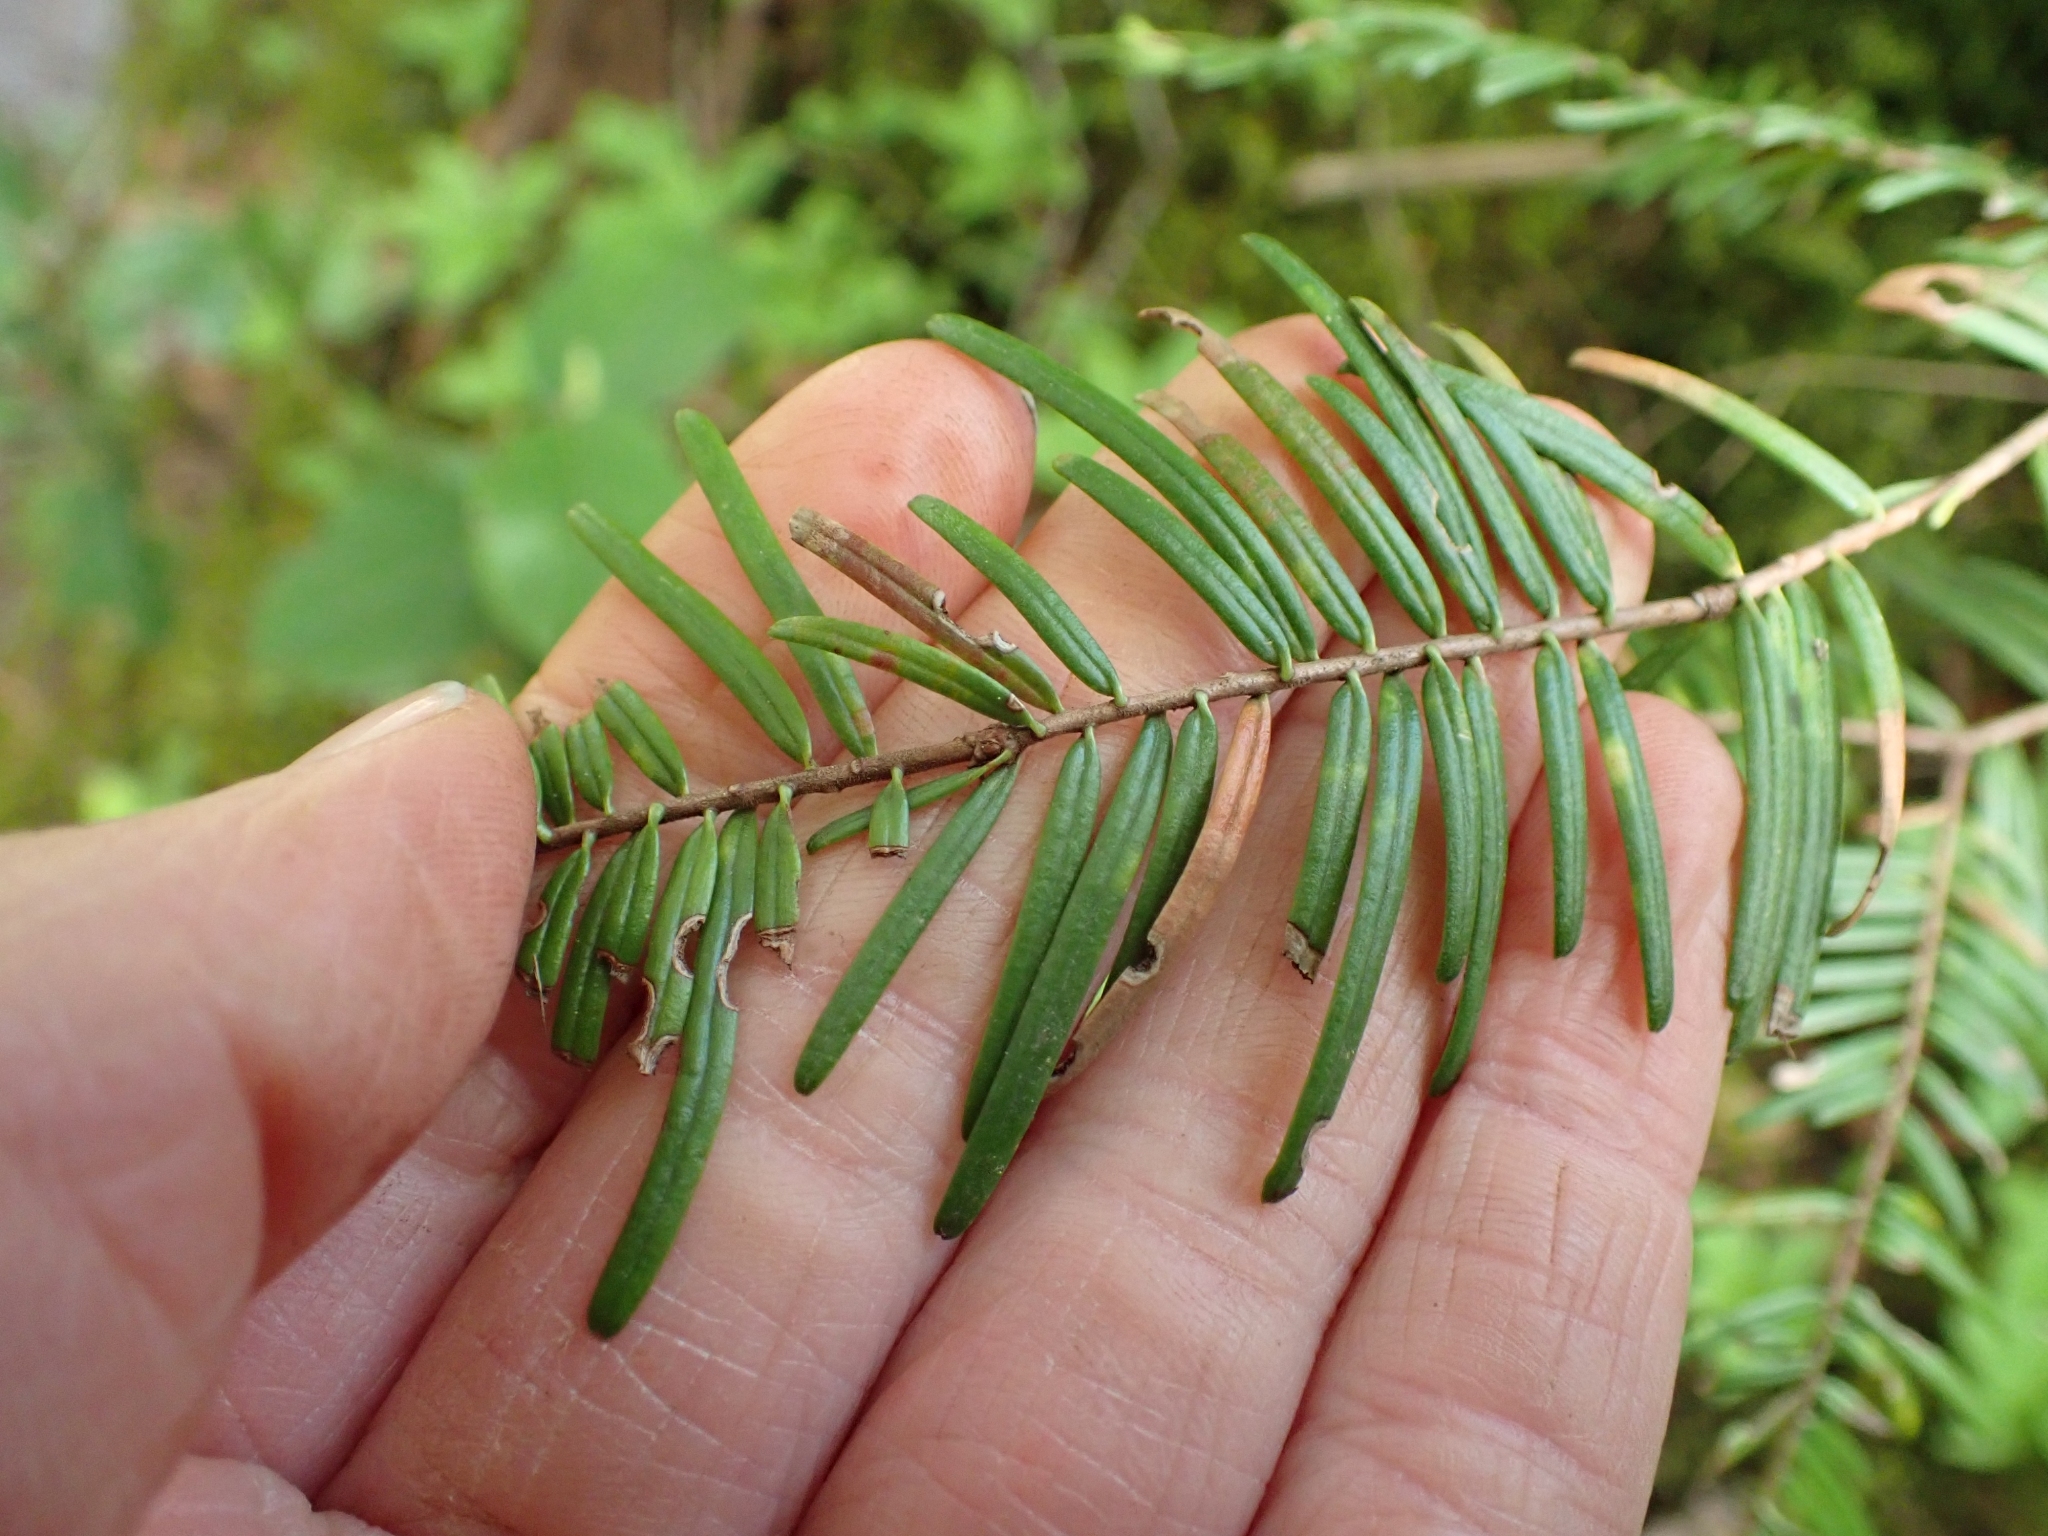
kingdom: Plantae
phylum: Tracheophyta
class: Pinopsida
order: Pinales
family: Pinaceae
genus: Abies
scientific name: Abies grandis
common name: Giant fir
